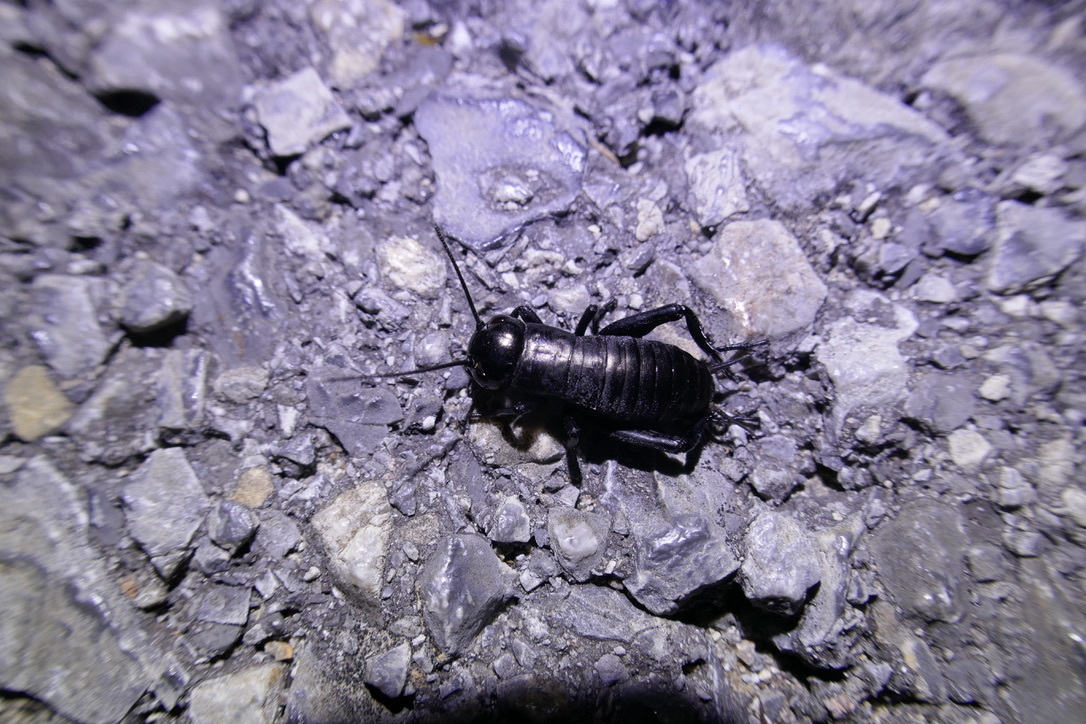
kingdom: Animalia
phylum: Arthropoda
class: Insecta
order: Orthoptera
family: Gryllidae
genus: Gryllus
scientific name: Gryllus campestris
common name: Field cricket
